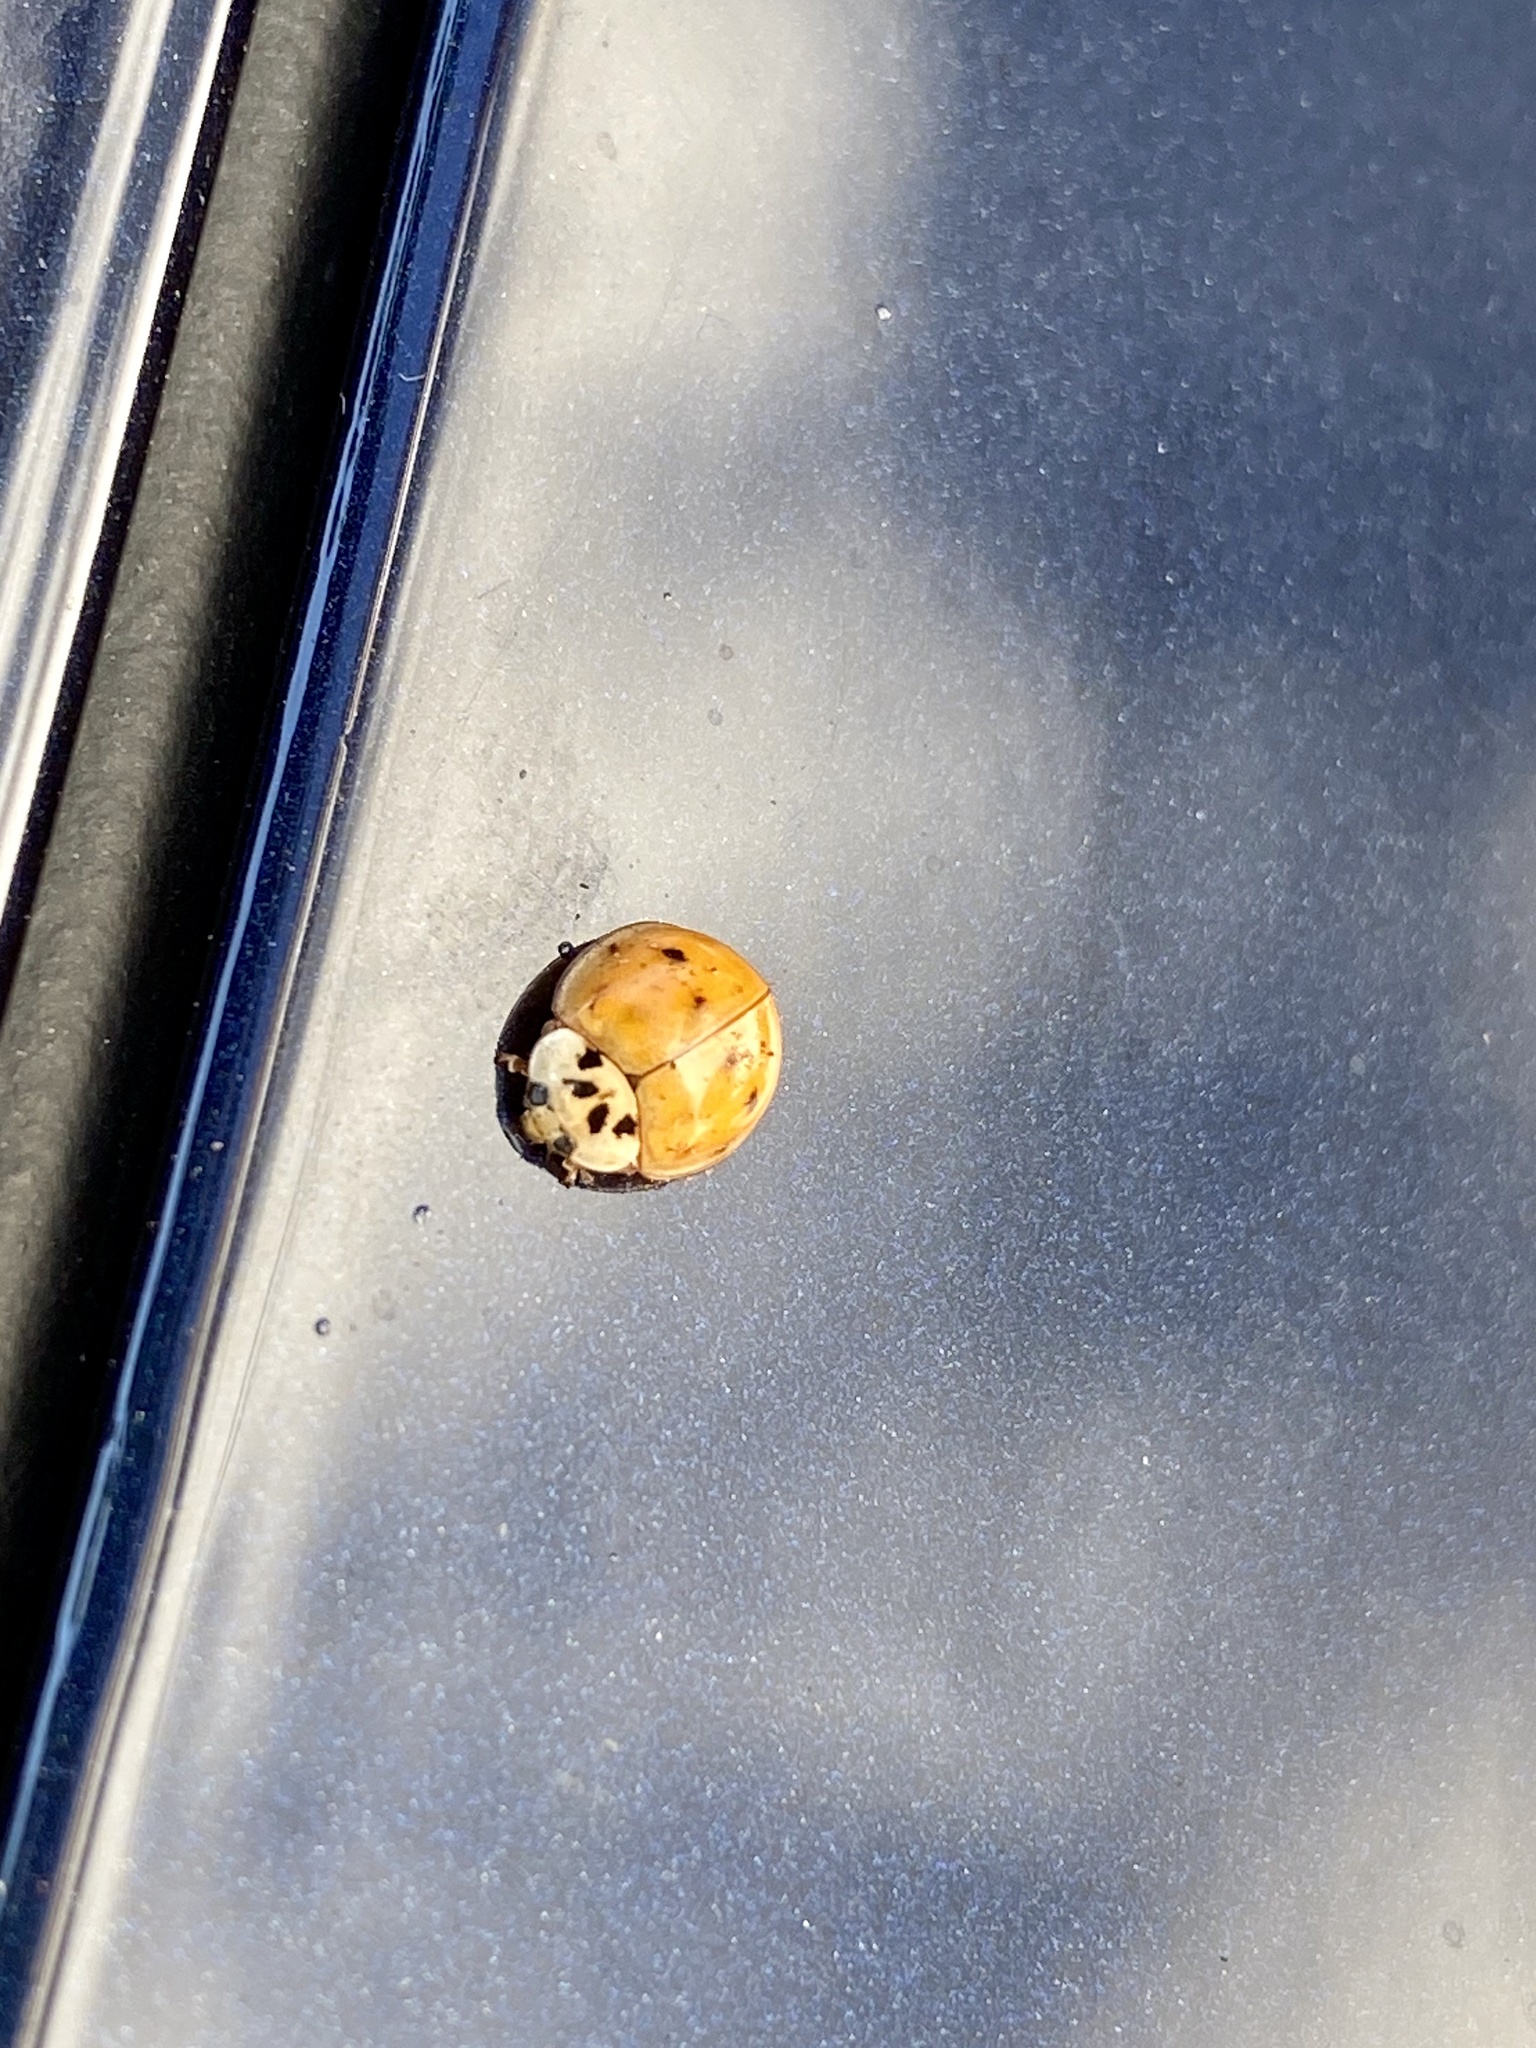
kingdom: Animalia
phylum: Arthropoda
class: Insecta
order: Coleoptera
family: Coccinellidae
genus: Harmonia
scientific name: Harmonia axyridis
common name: Harlequin ladybird
